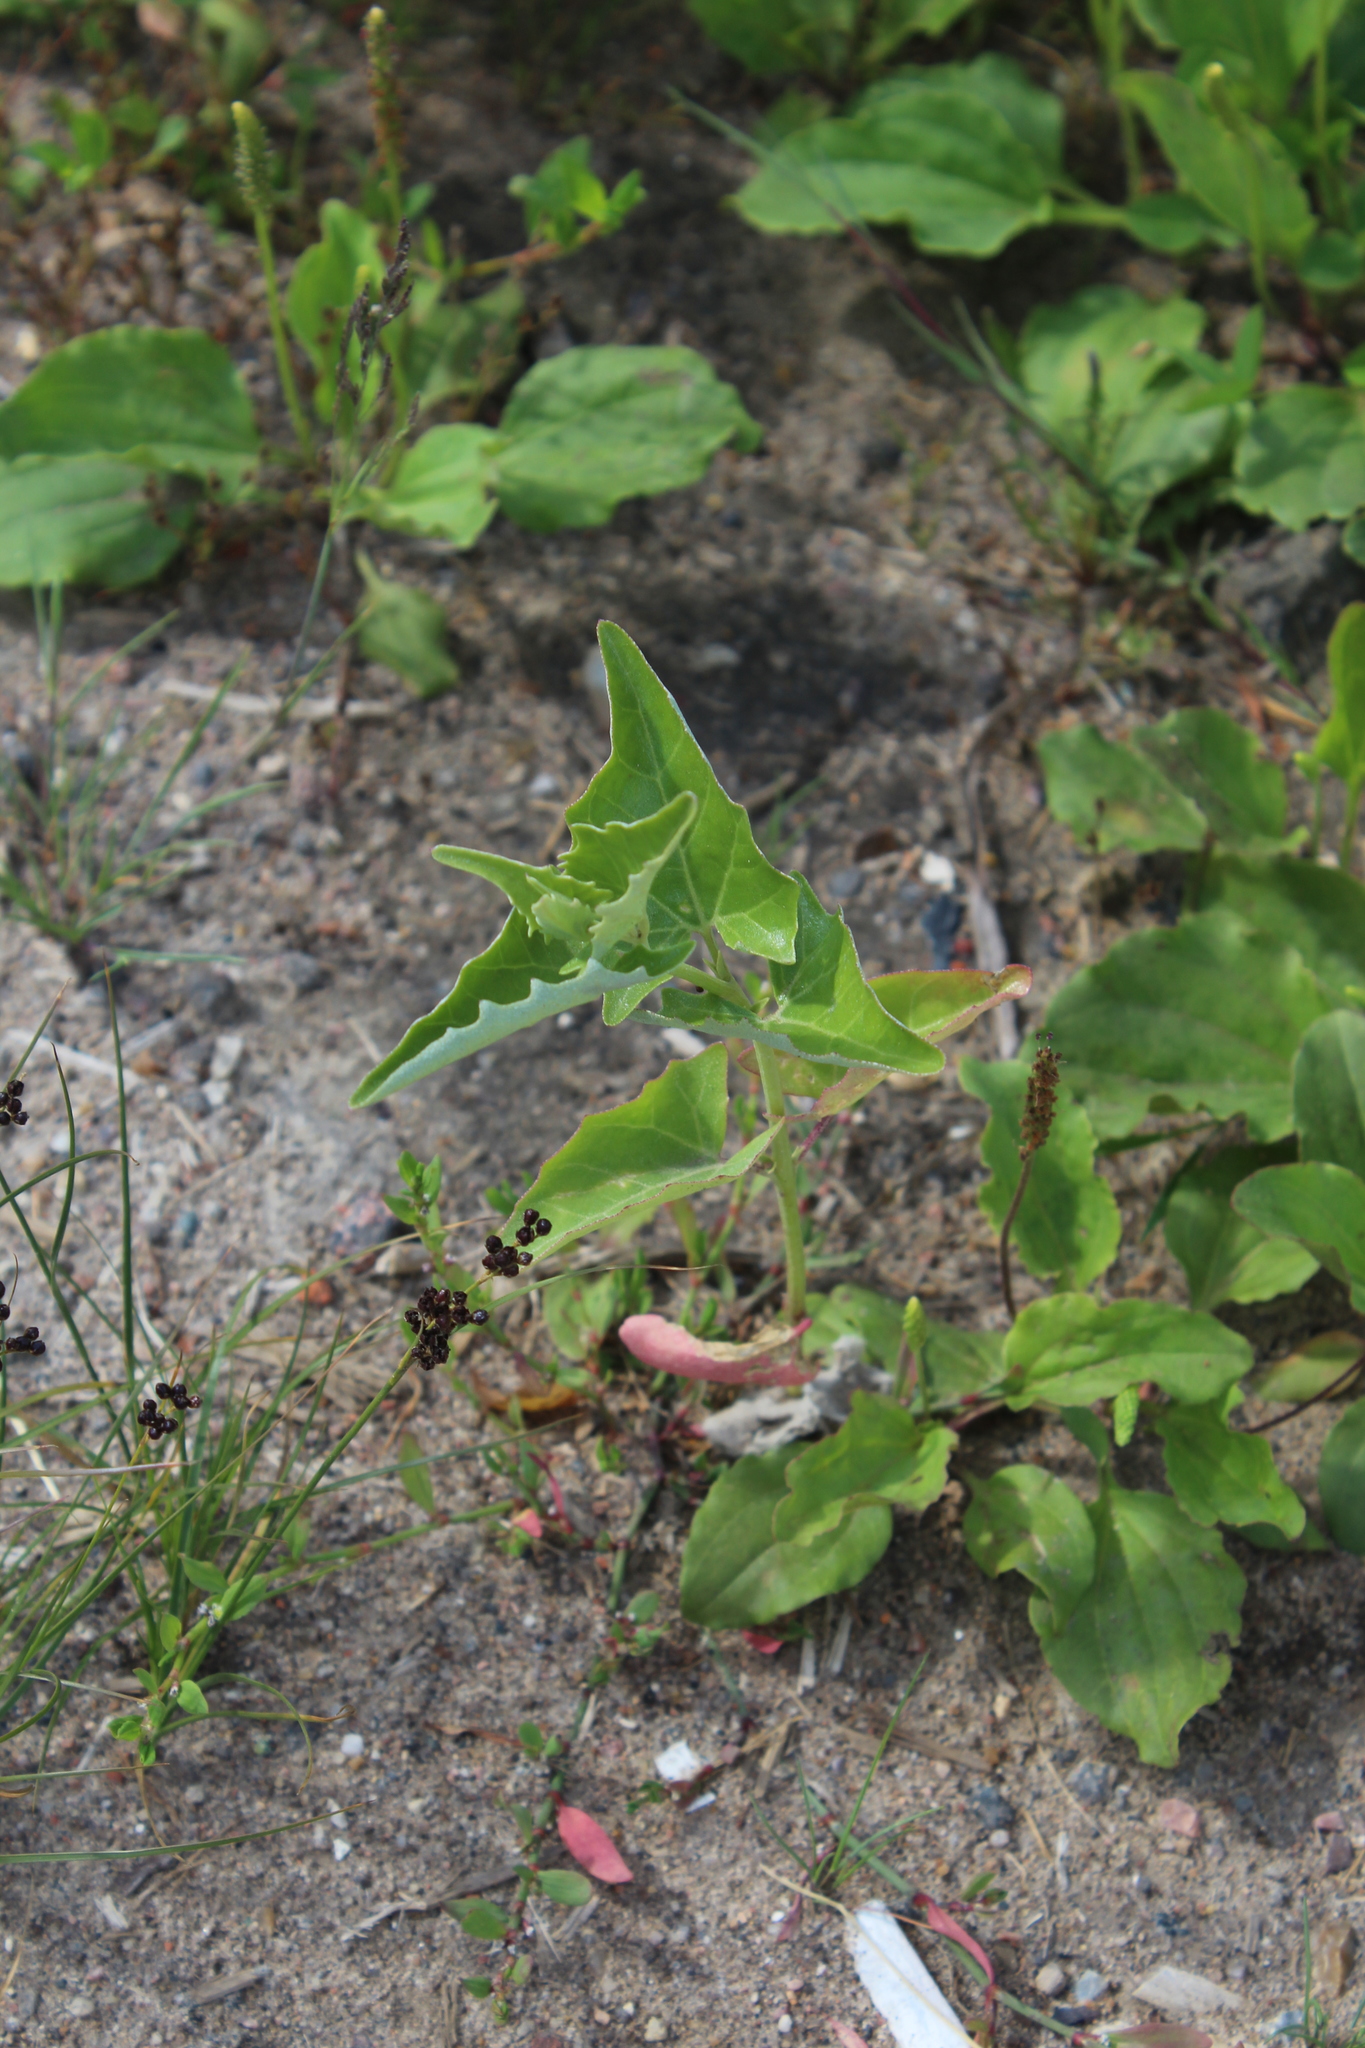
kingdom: Plantae
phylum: Tracheophyta
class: Magnoliopsida
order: Caryophyllales
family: Amaranthaceae
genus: Atriplex
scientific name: Atriplex sagittata
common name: Purple orache
